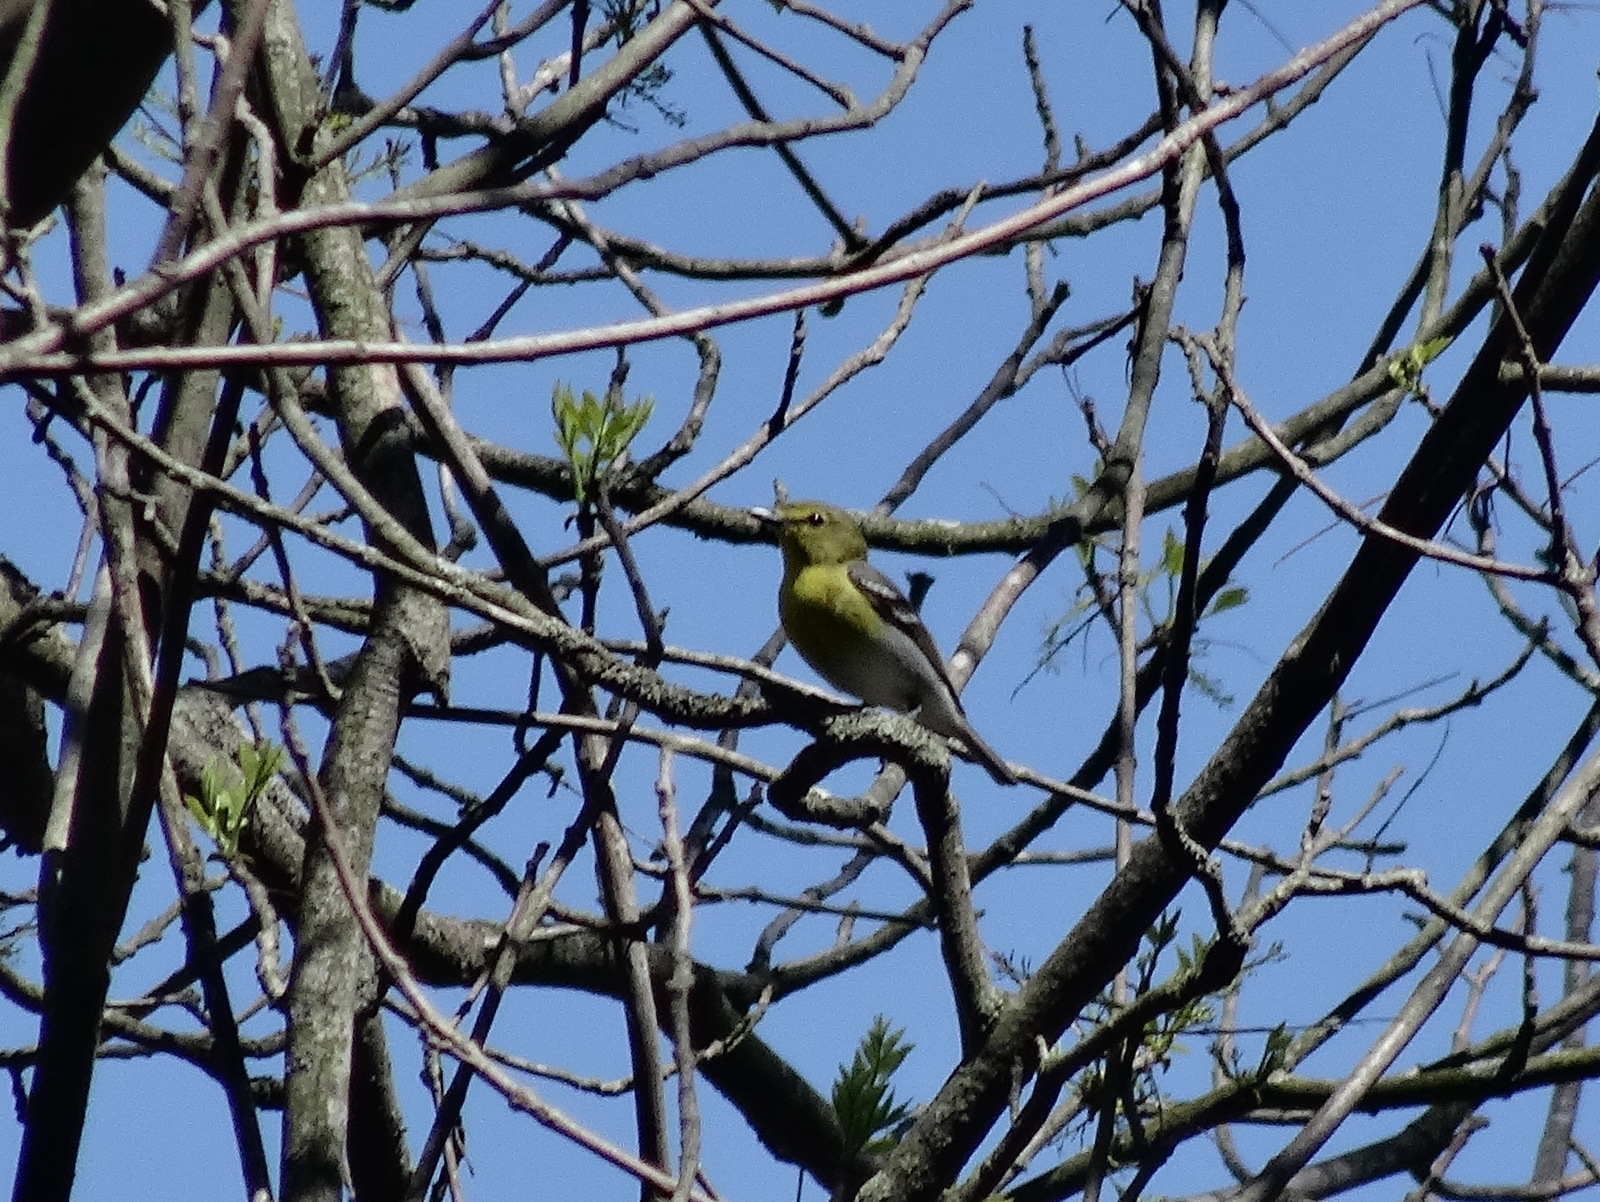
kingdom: Animalia
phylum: Chordata
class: Aves
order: Passeriformes
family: Vireonidae
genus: Vireo
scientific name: Vireo flavifrons
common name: Yellow-throated vireo
